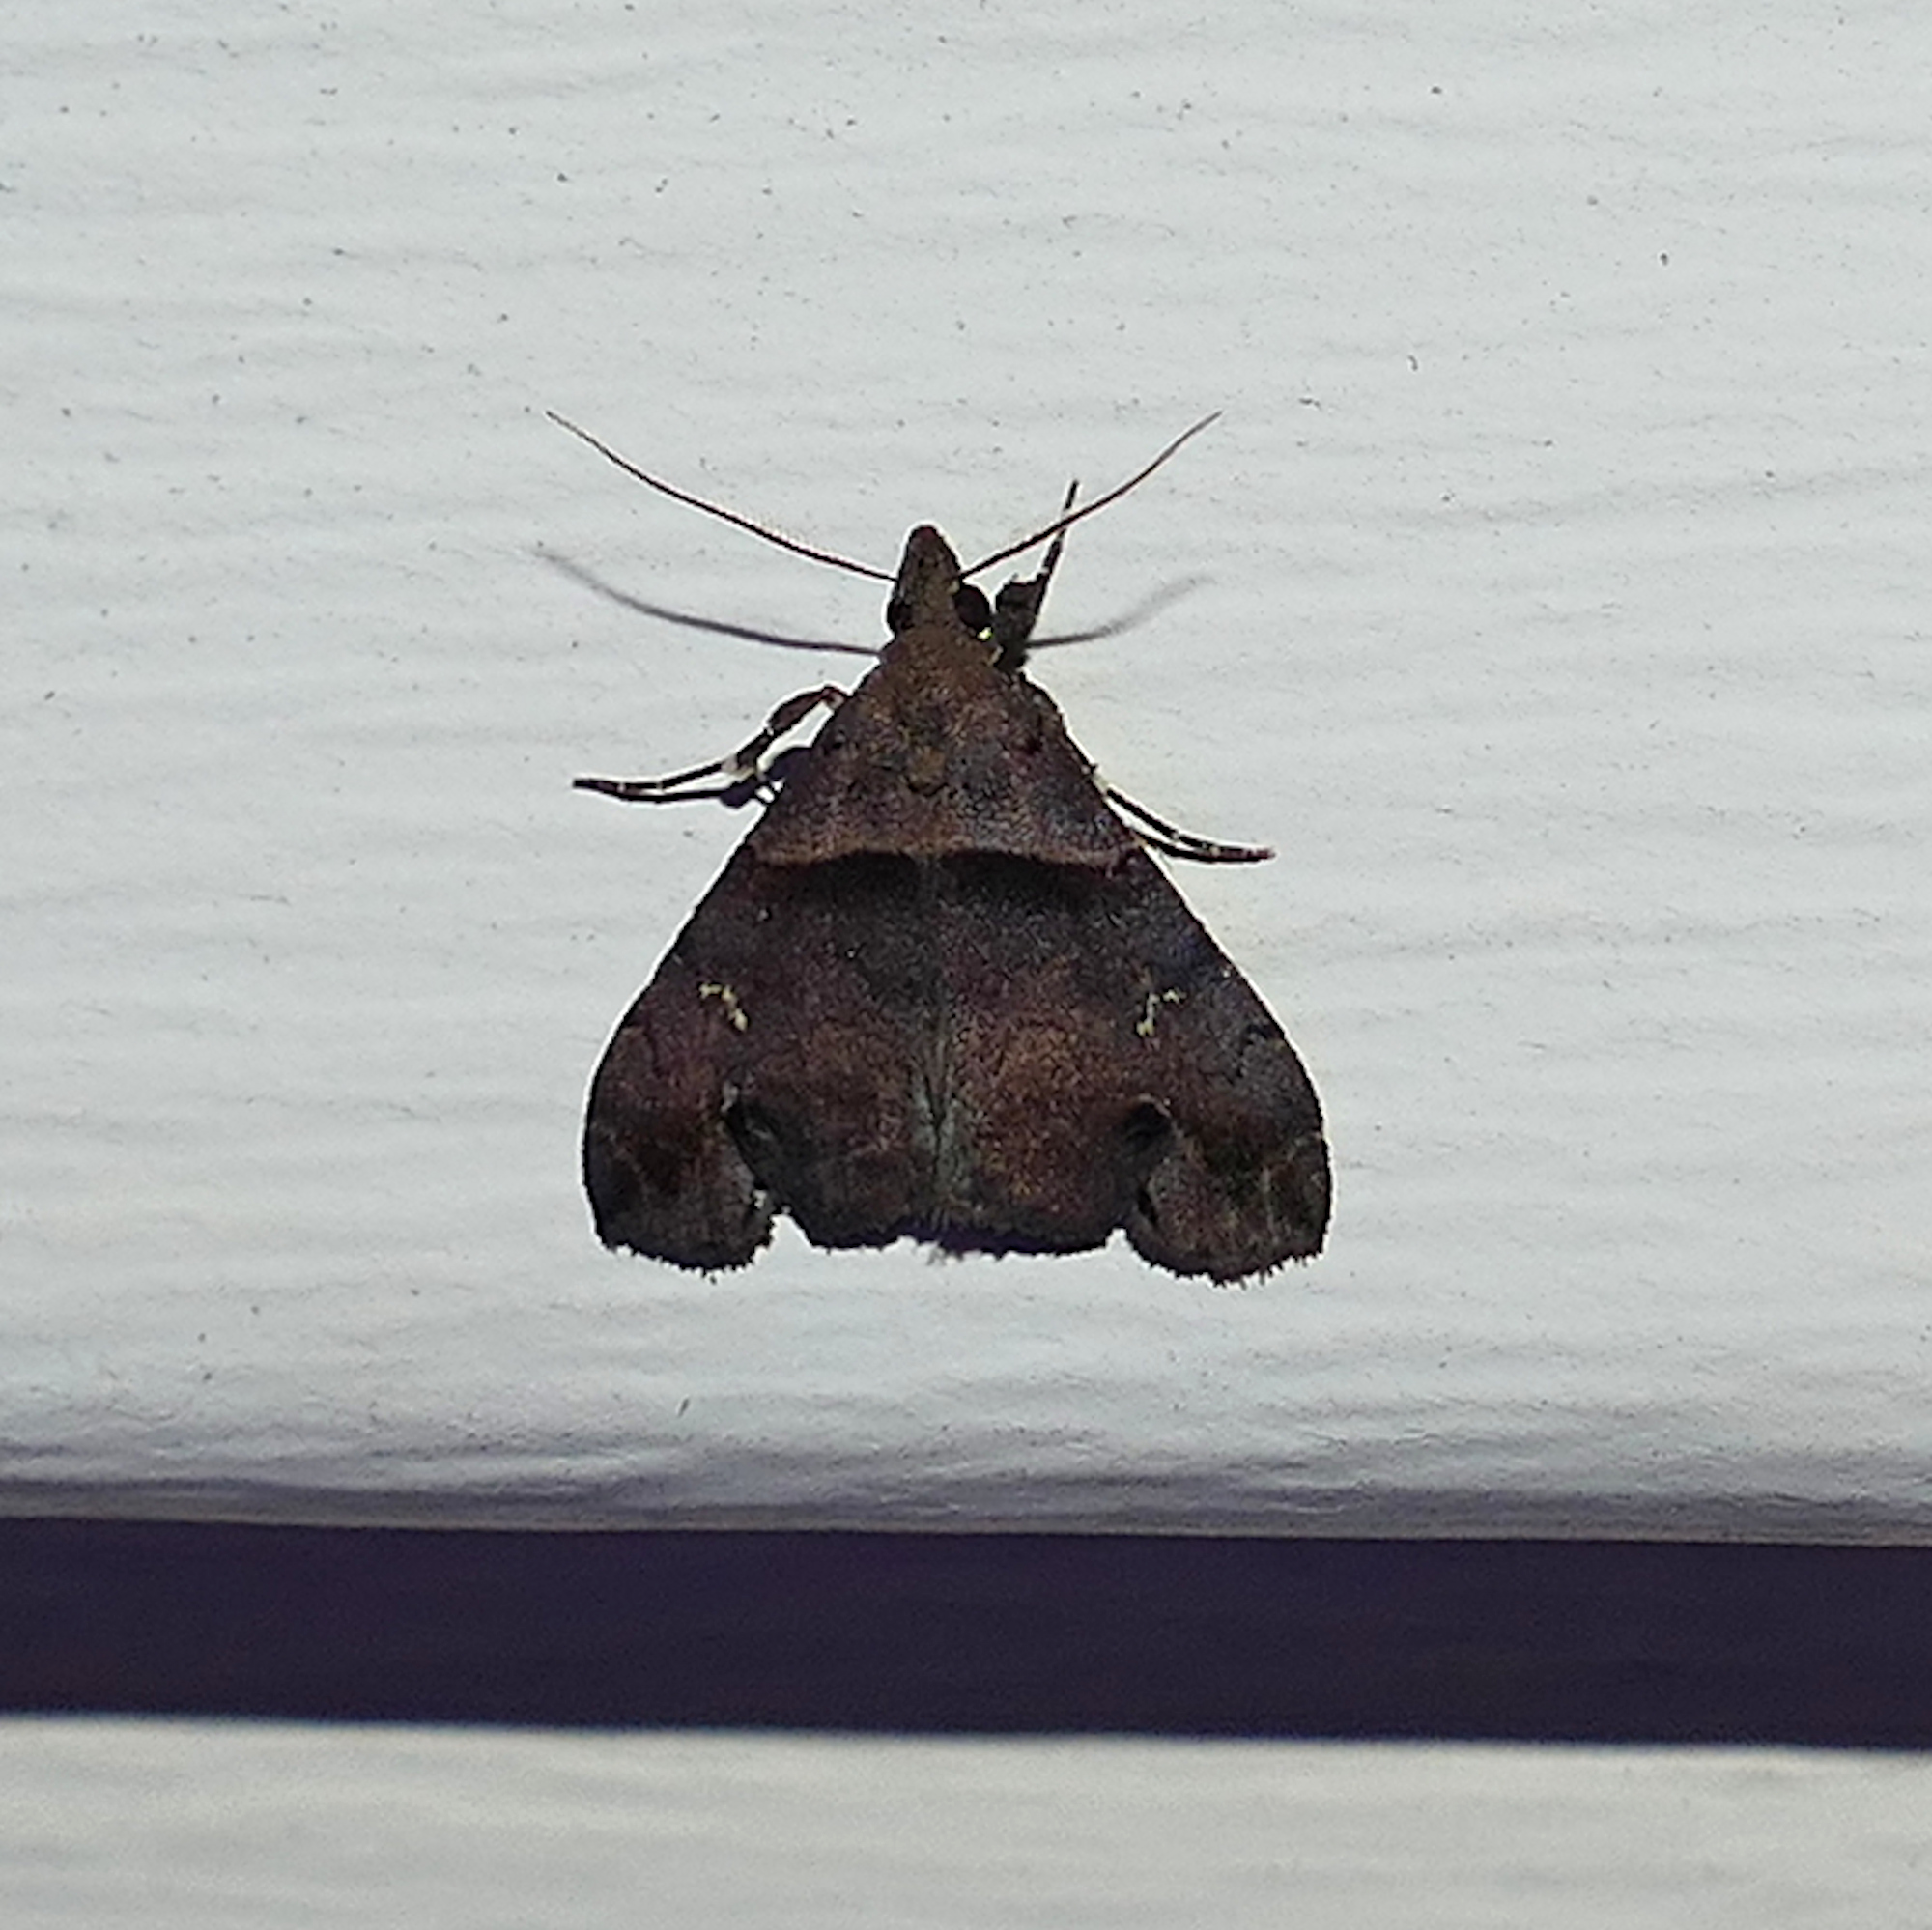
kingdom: Animalia
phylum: Arthropoda
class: Insecta
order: Lepidoptera
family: Erebidae
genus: Lascoria
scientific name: Lascoria ambigualis
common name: Ambiguous moth
